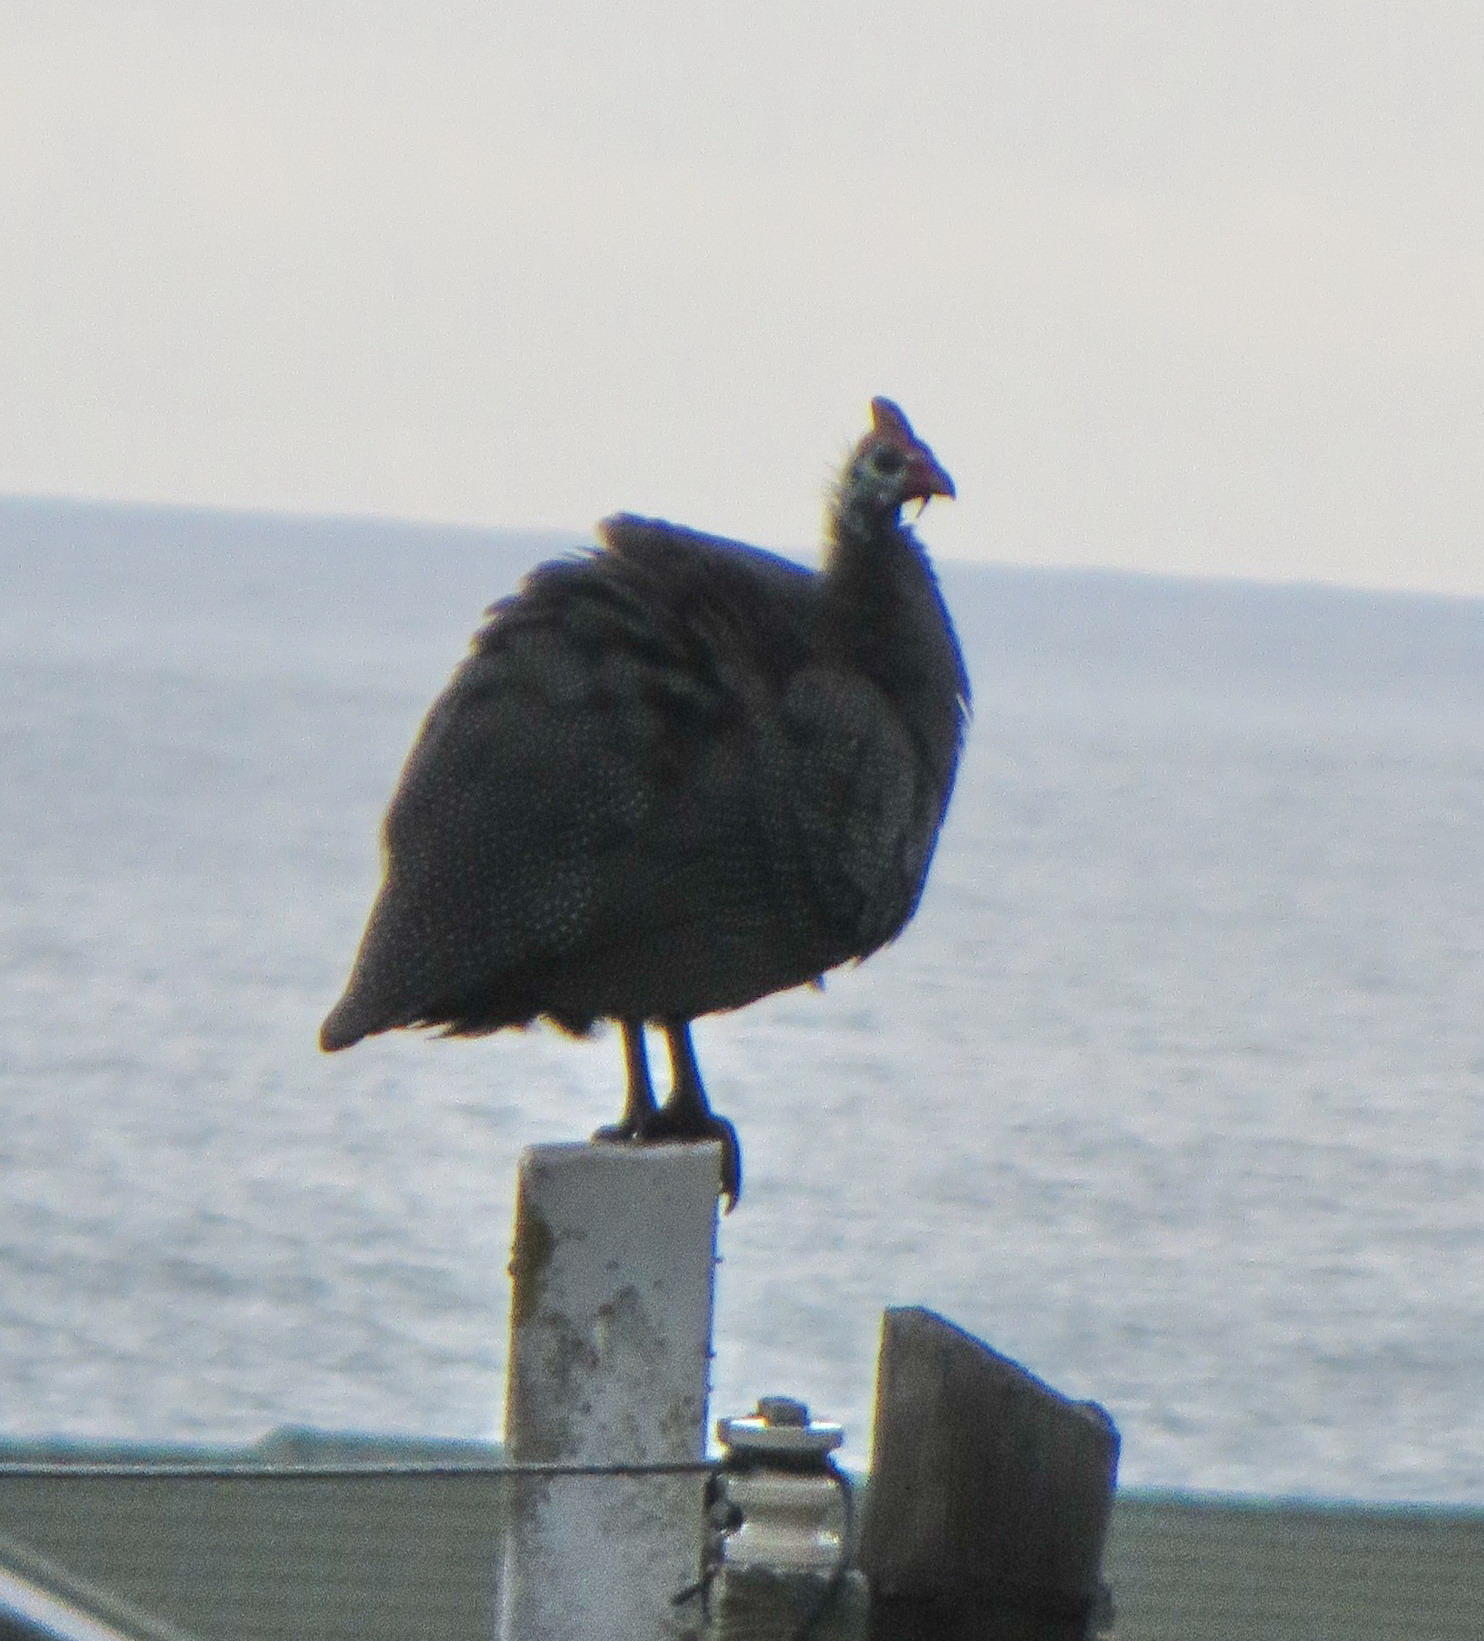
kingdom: Animalia
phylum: Chordata
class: Aves
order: Galliformes
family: Numididae
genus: Numida
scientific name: Numida meleagris
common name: Helmeted guineafowl
